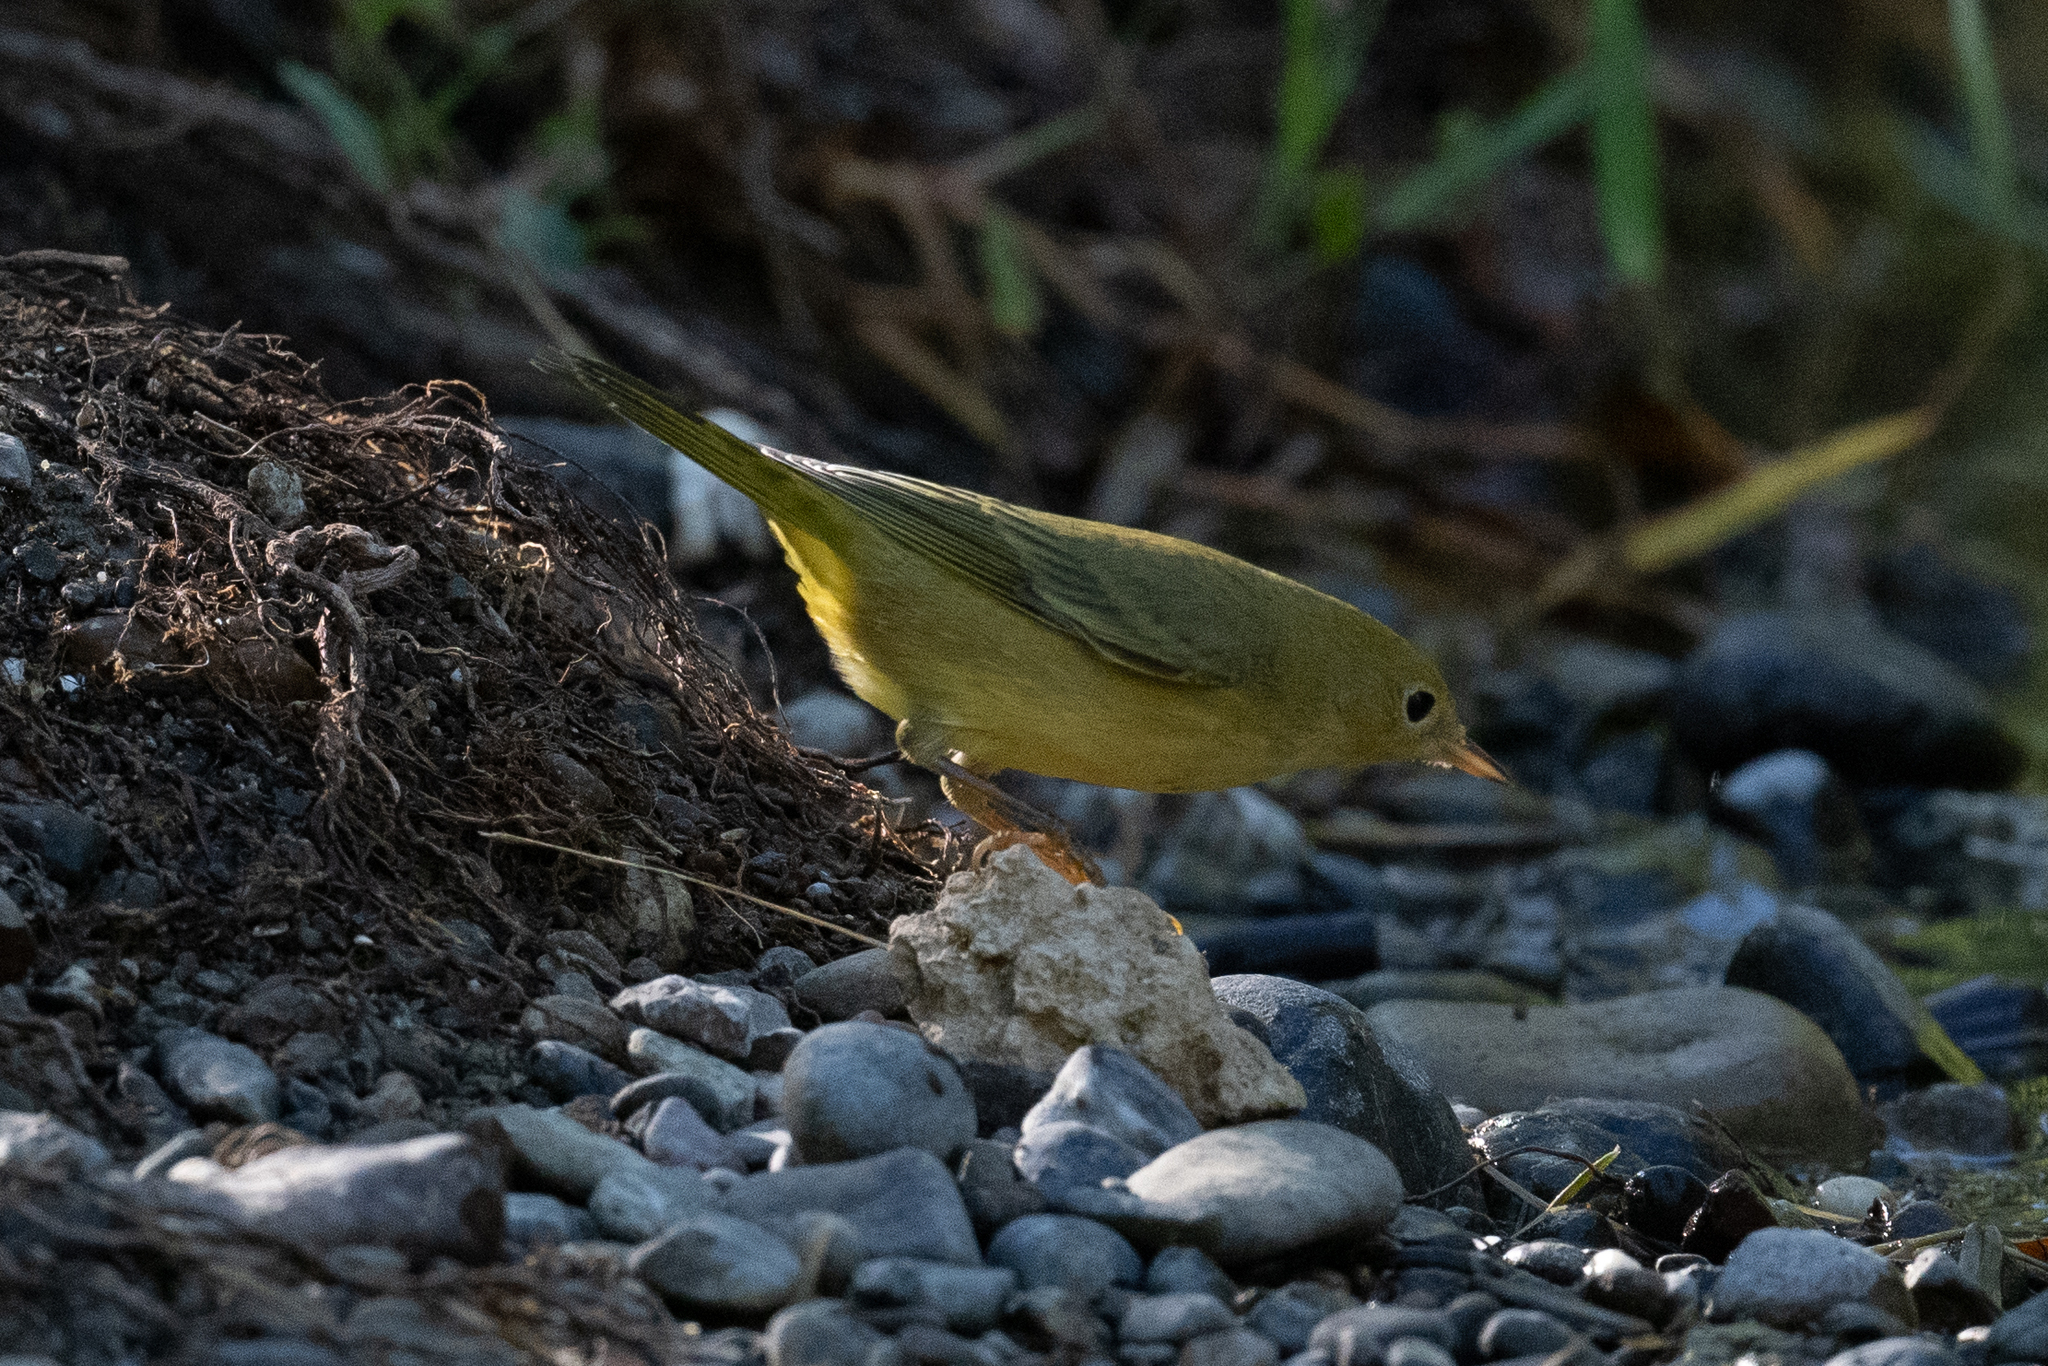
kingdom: Animalia
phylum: Chordata
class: Aves
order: Passeriformes
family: Parulidae
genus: Setophaga
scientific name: Setophaga petechia
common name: Yellow warbler
